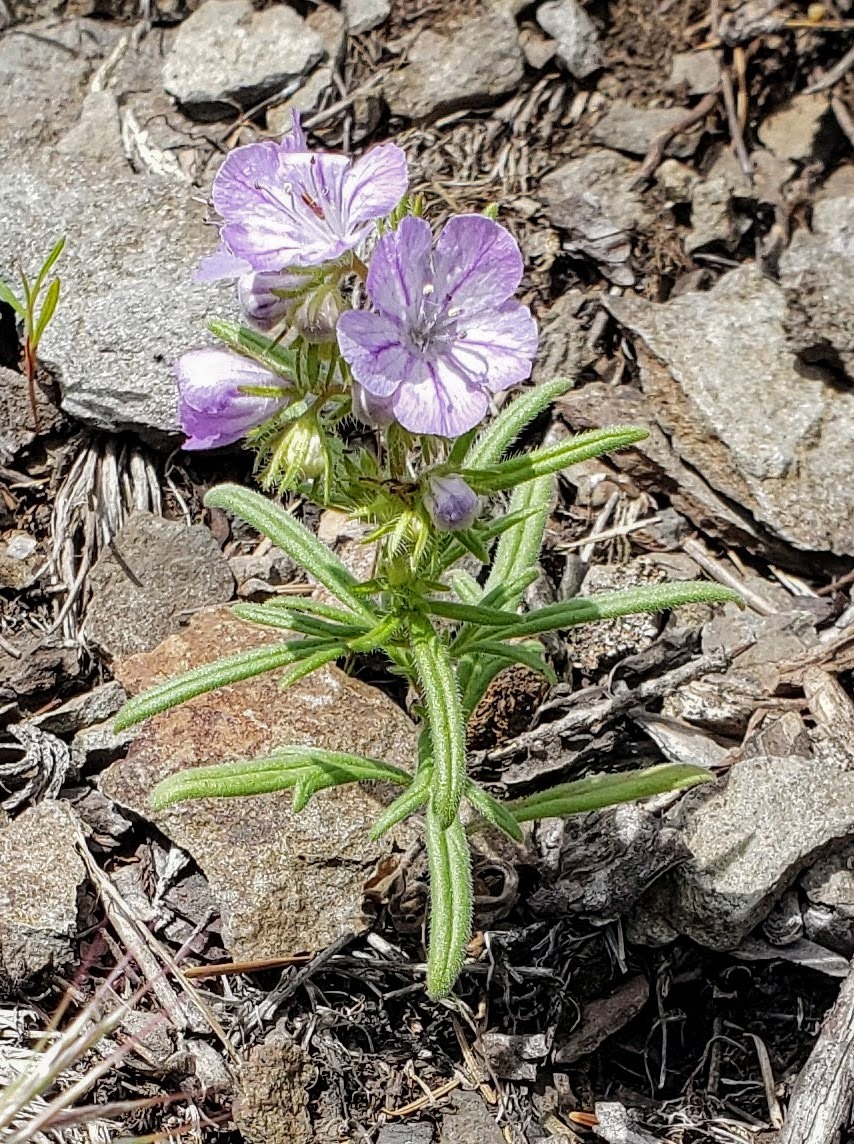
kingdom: Plantae
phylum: Tracheophyta
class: Magnoliopsida
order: Boraginales
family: Hydrophyllaceae
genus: Phacelia
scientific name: Phacelia linearis
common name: Linear-leaved phacelia
